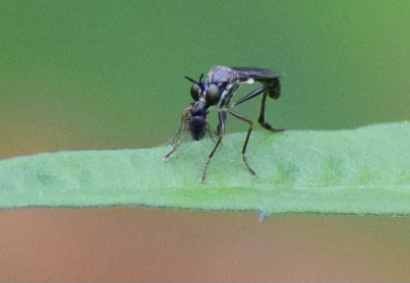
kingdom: Animalia
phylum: Arthropoda
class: Insecta
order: Diptera
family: Asilidae
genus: Dioctria
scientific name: Dioctria hyalipennis
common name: Stripe-legged robberfly
